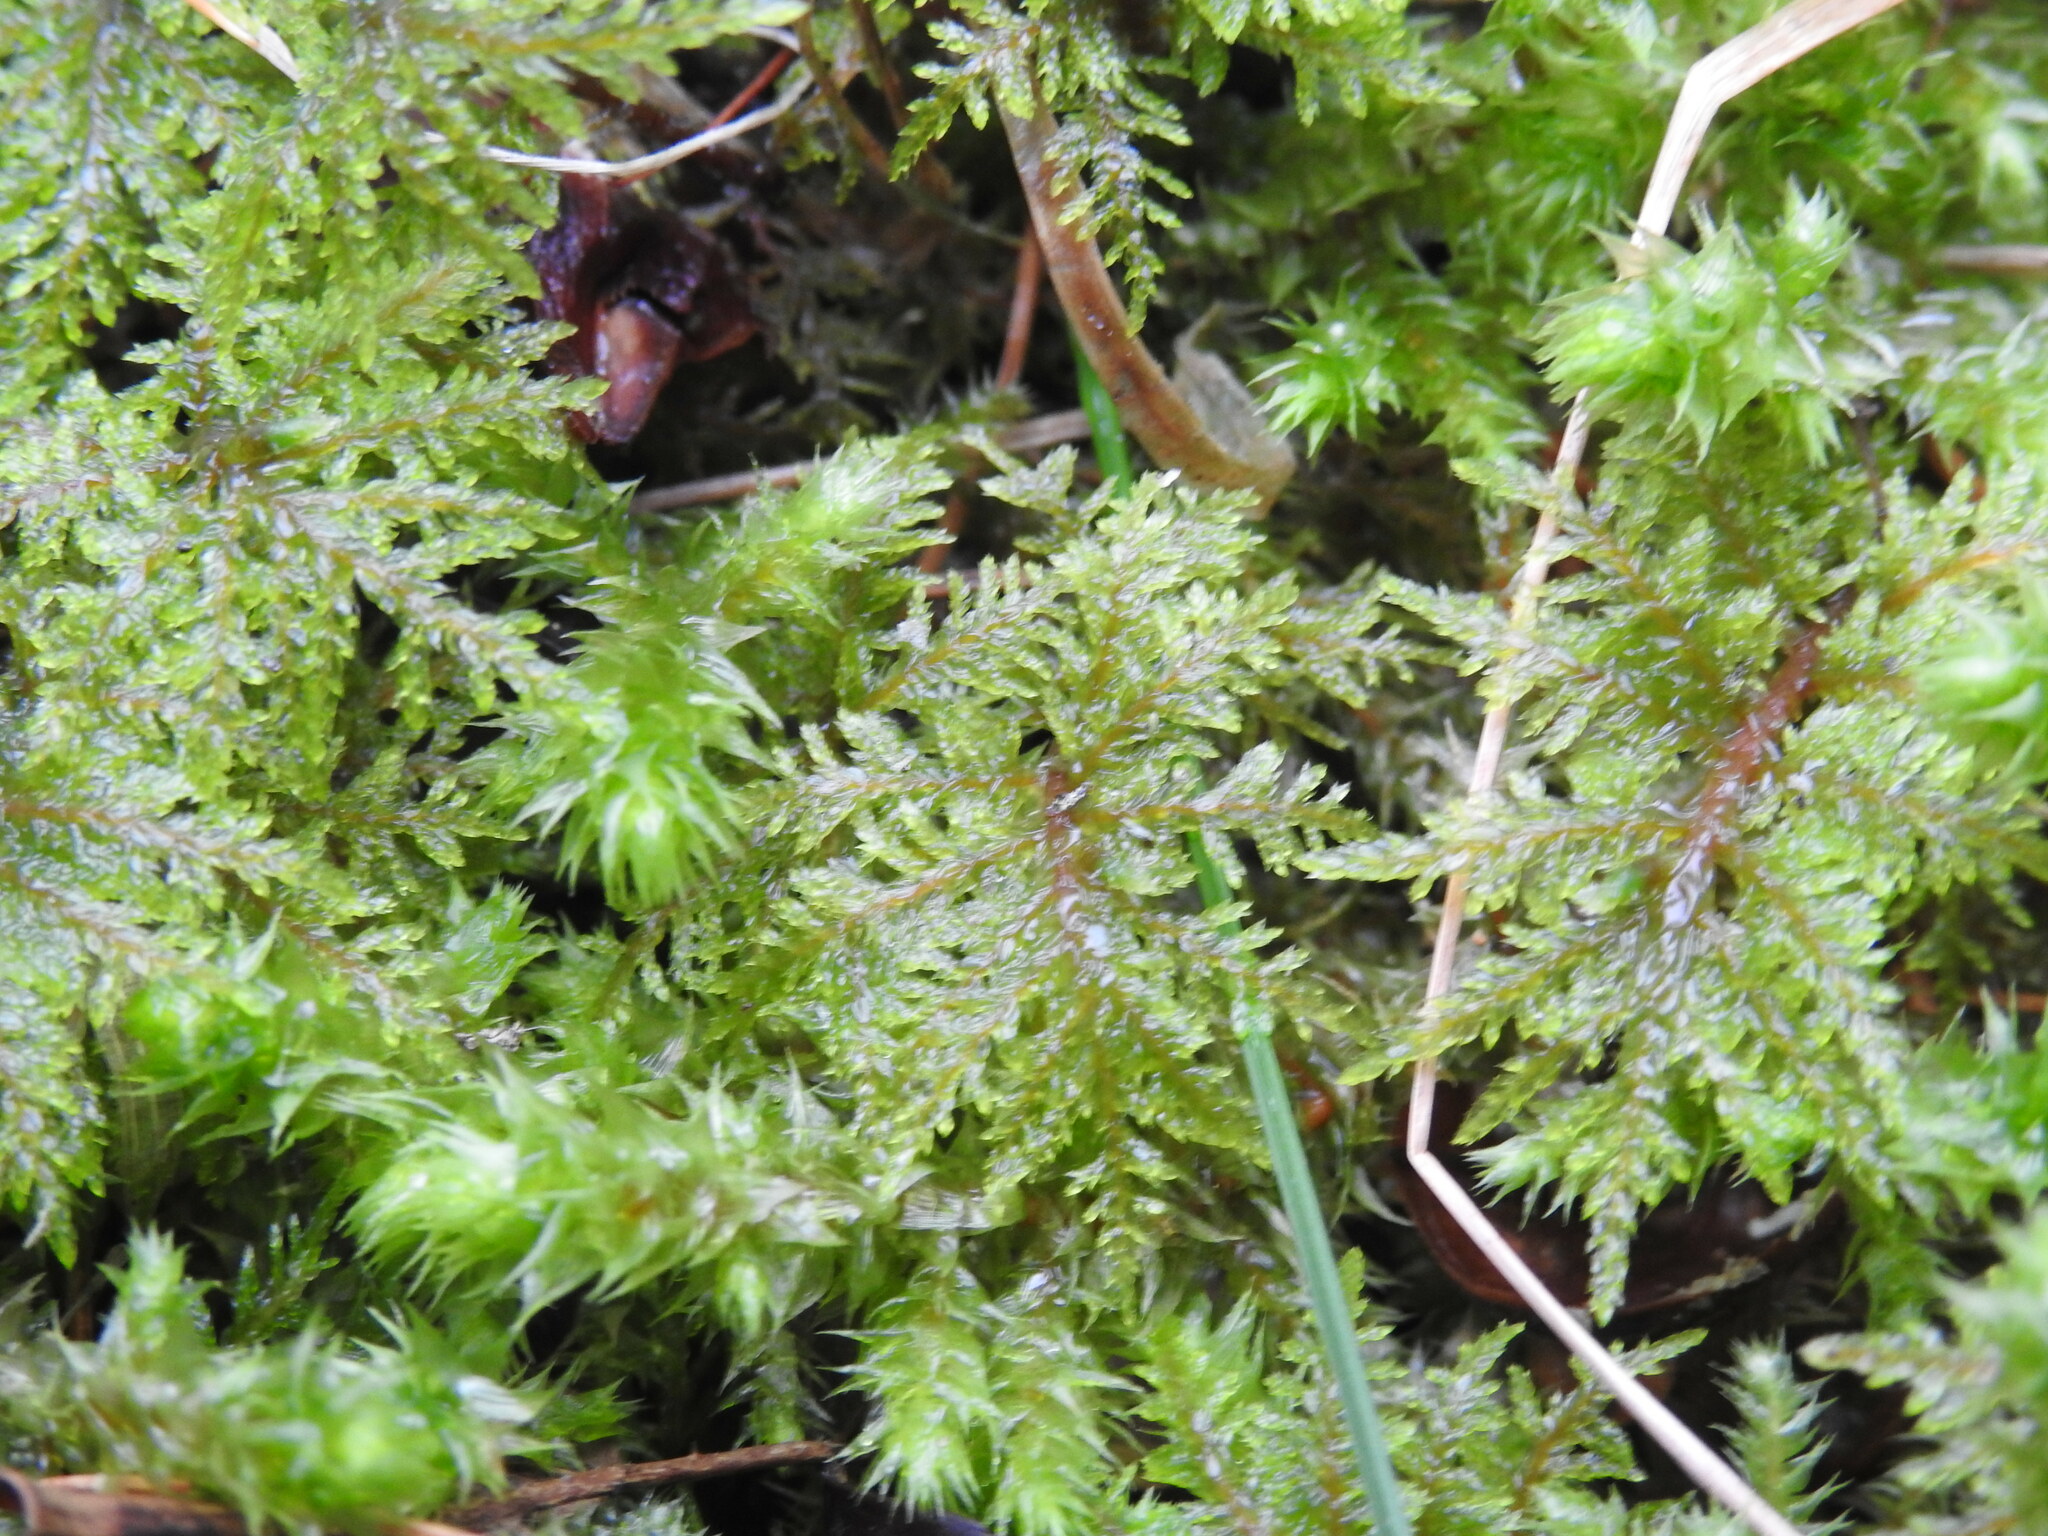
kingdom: Plantae
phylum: Bryophyta
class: Bryopsida
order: Hypnales
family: Hylocomiaceae
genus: Hylocomium
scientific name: Hylocomium splendens
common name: Stairstep moss
